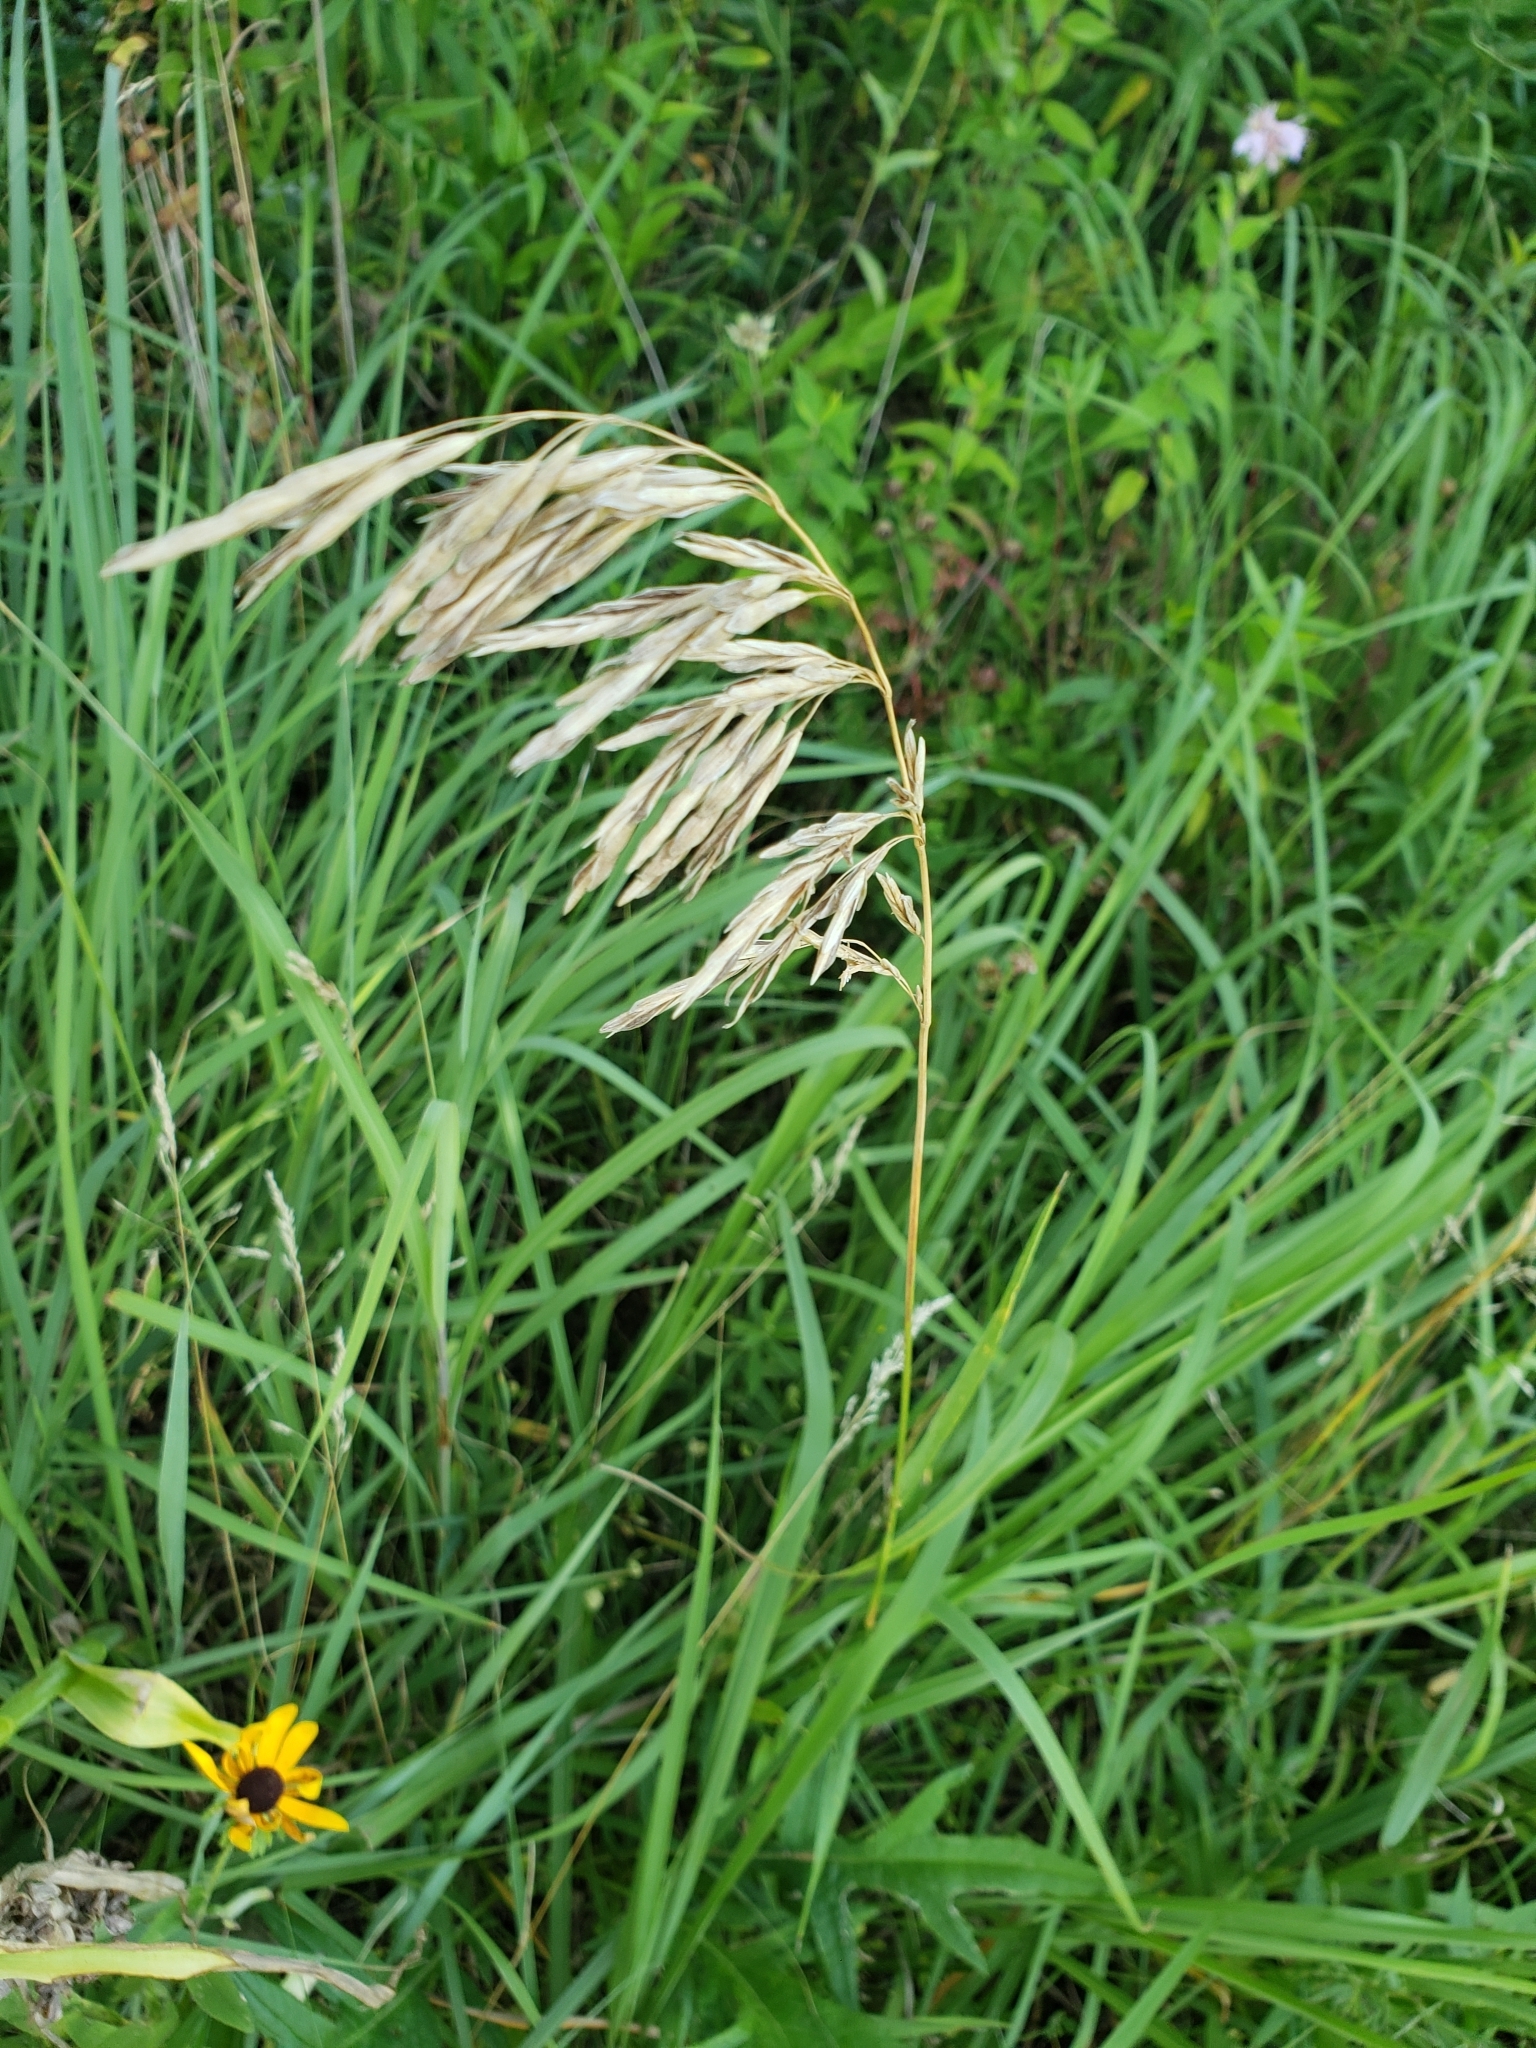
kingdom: Plantae
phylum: Tracheophyta
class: Liliopsida
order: Poales
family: Poaceae
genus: Bromus
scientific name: Bromus inermis
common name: Smooth brome
